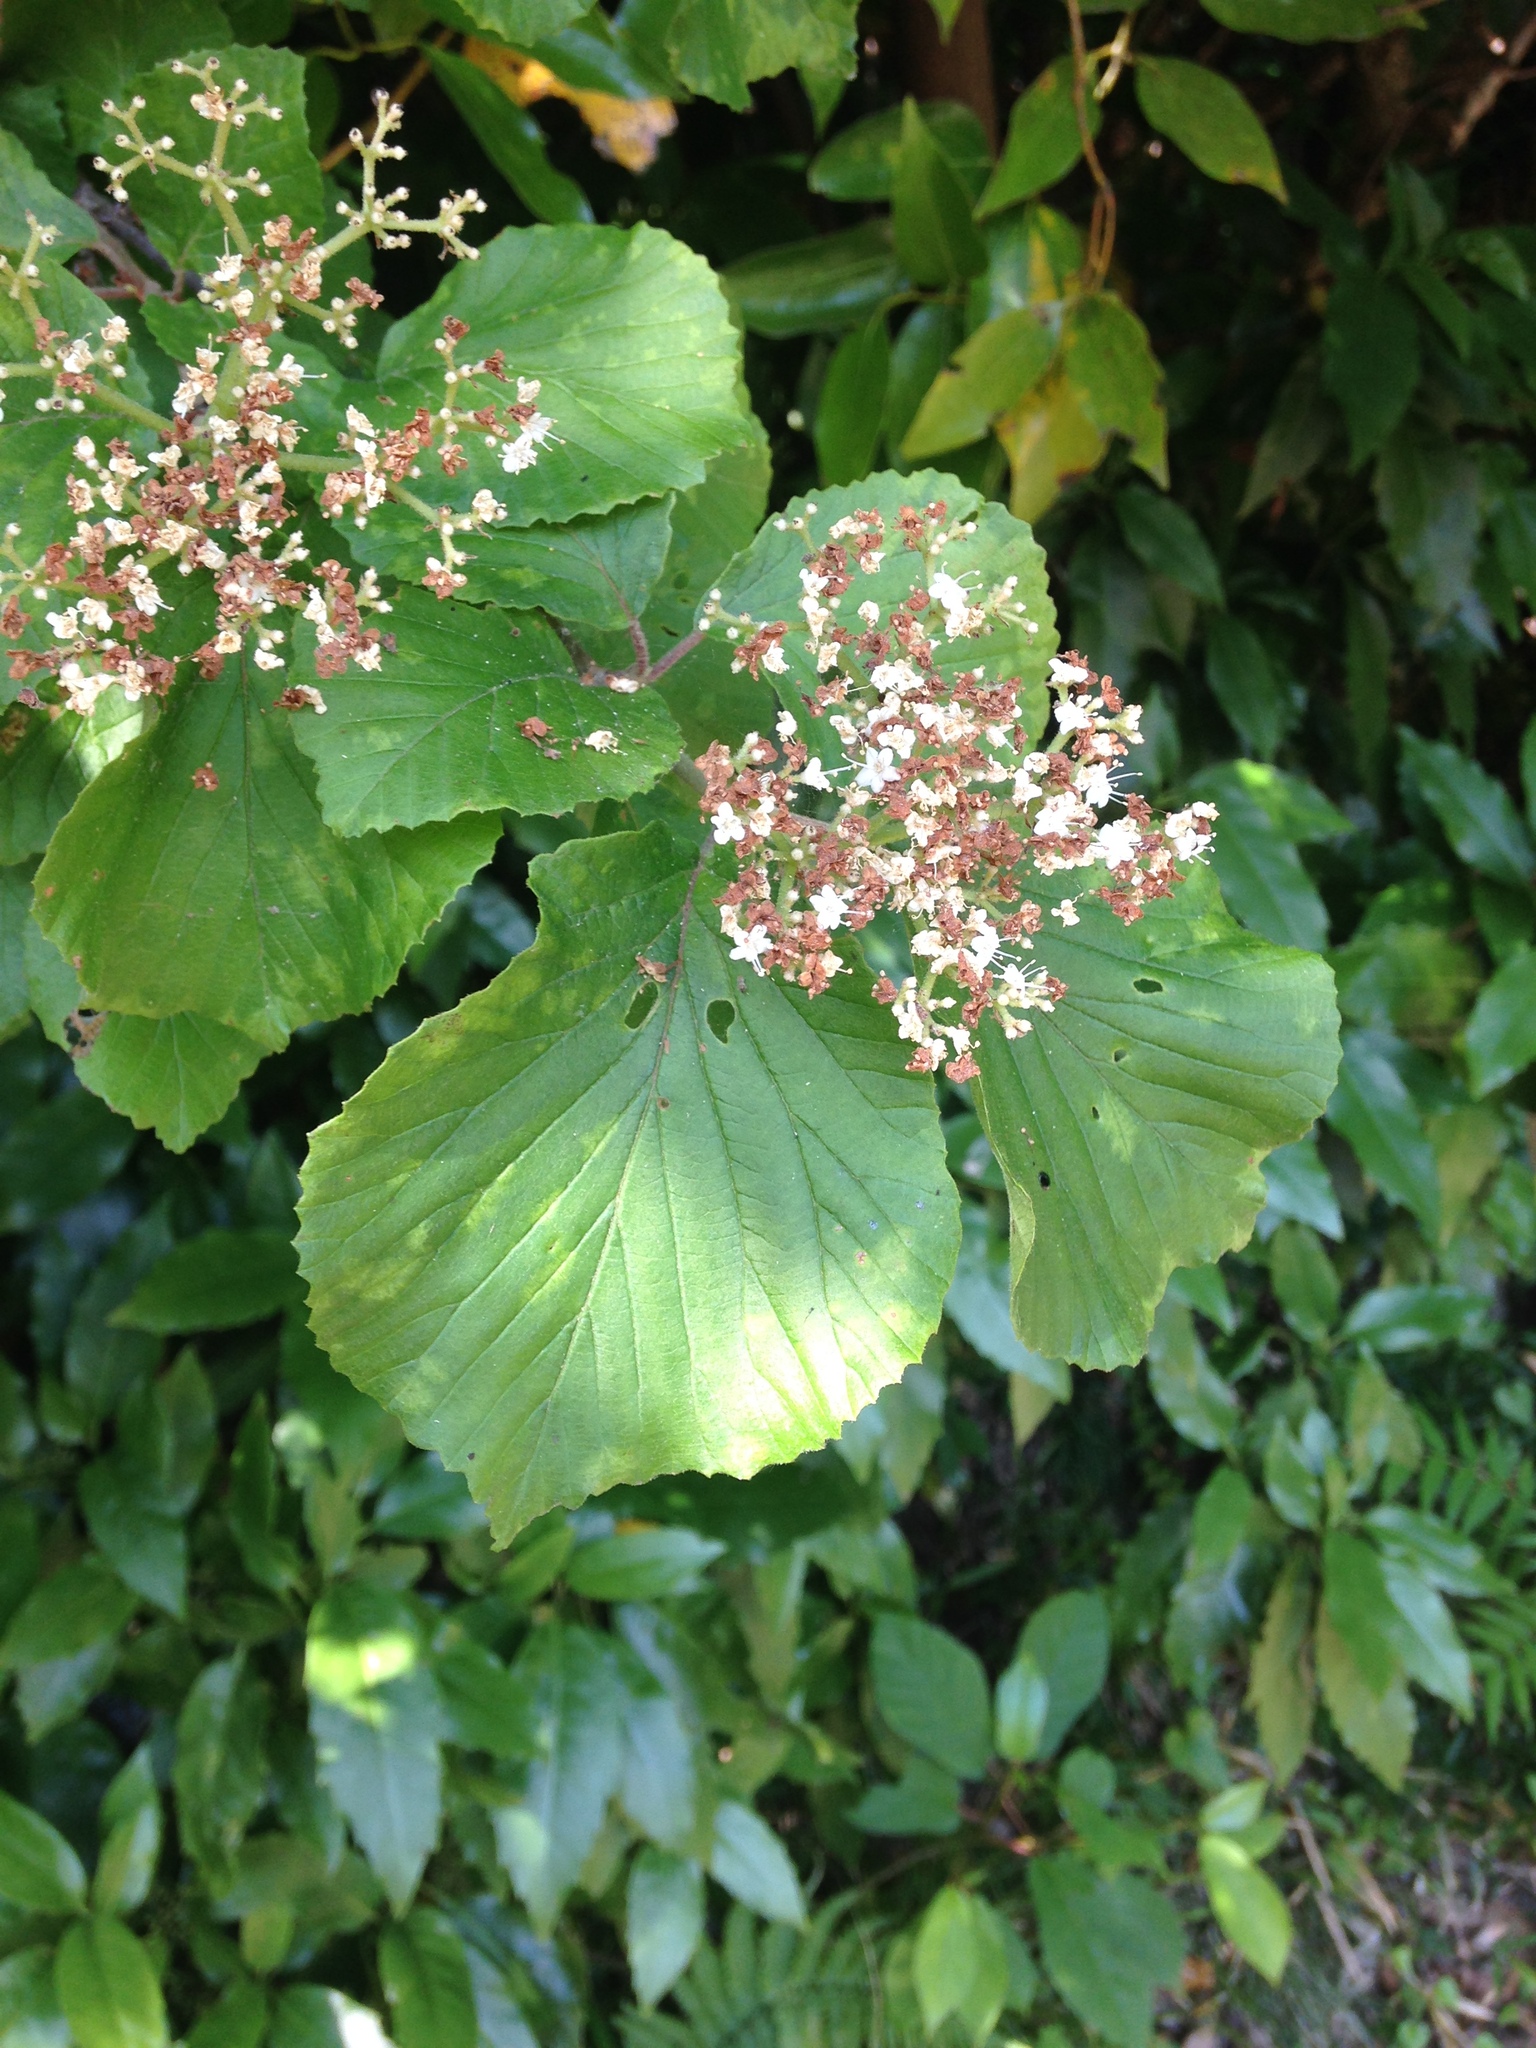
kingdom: Plantae
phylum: Tracheophyta
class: Magnoliopsida
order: Dipsacales
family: Viburnaceae
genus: Viburnum
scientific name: Viburnum dilatatum
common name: Linden arrowwood
